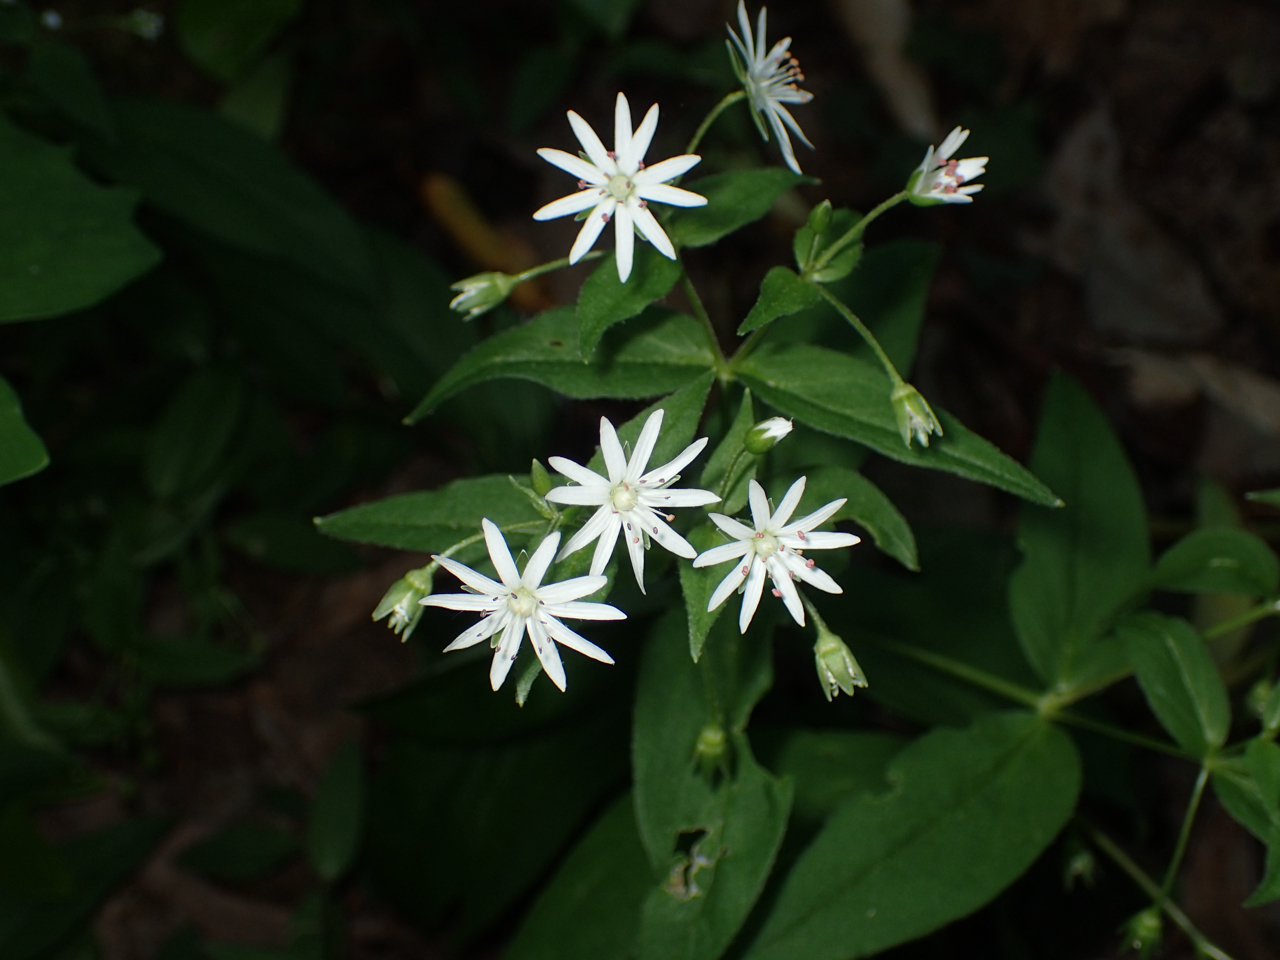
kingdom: Plantae
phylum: Tracheophyta
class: Magnoliopsida
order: Caryophyllales
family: Caryophyllaceae
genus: Stellaria
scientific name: Stellaria pubera
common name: Star chickweed
